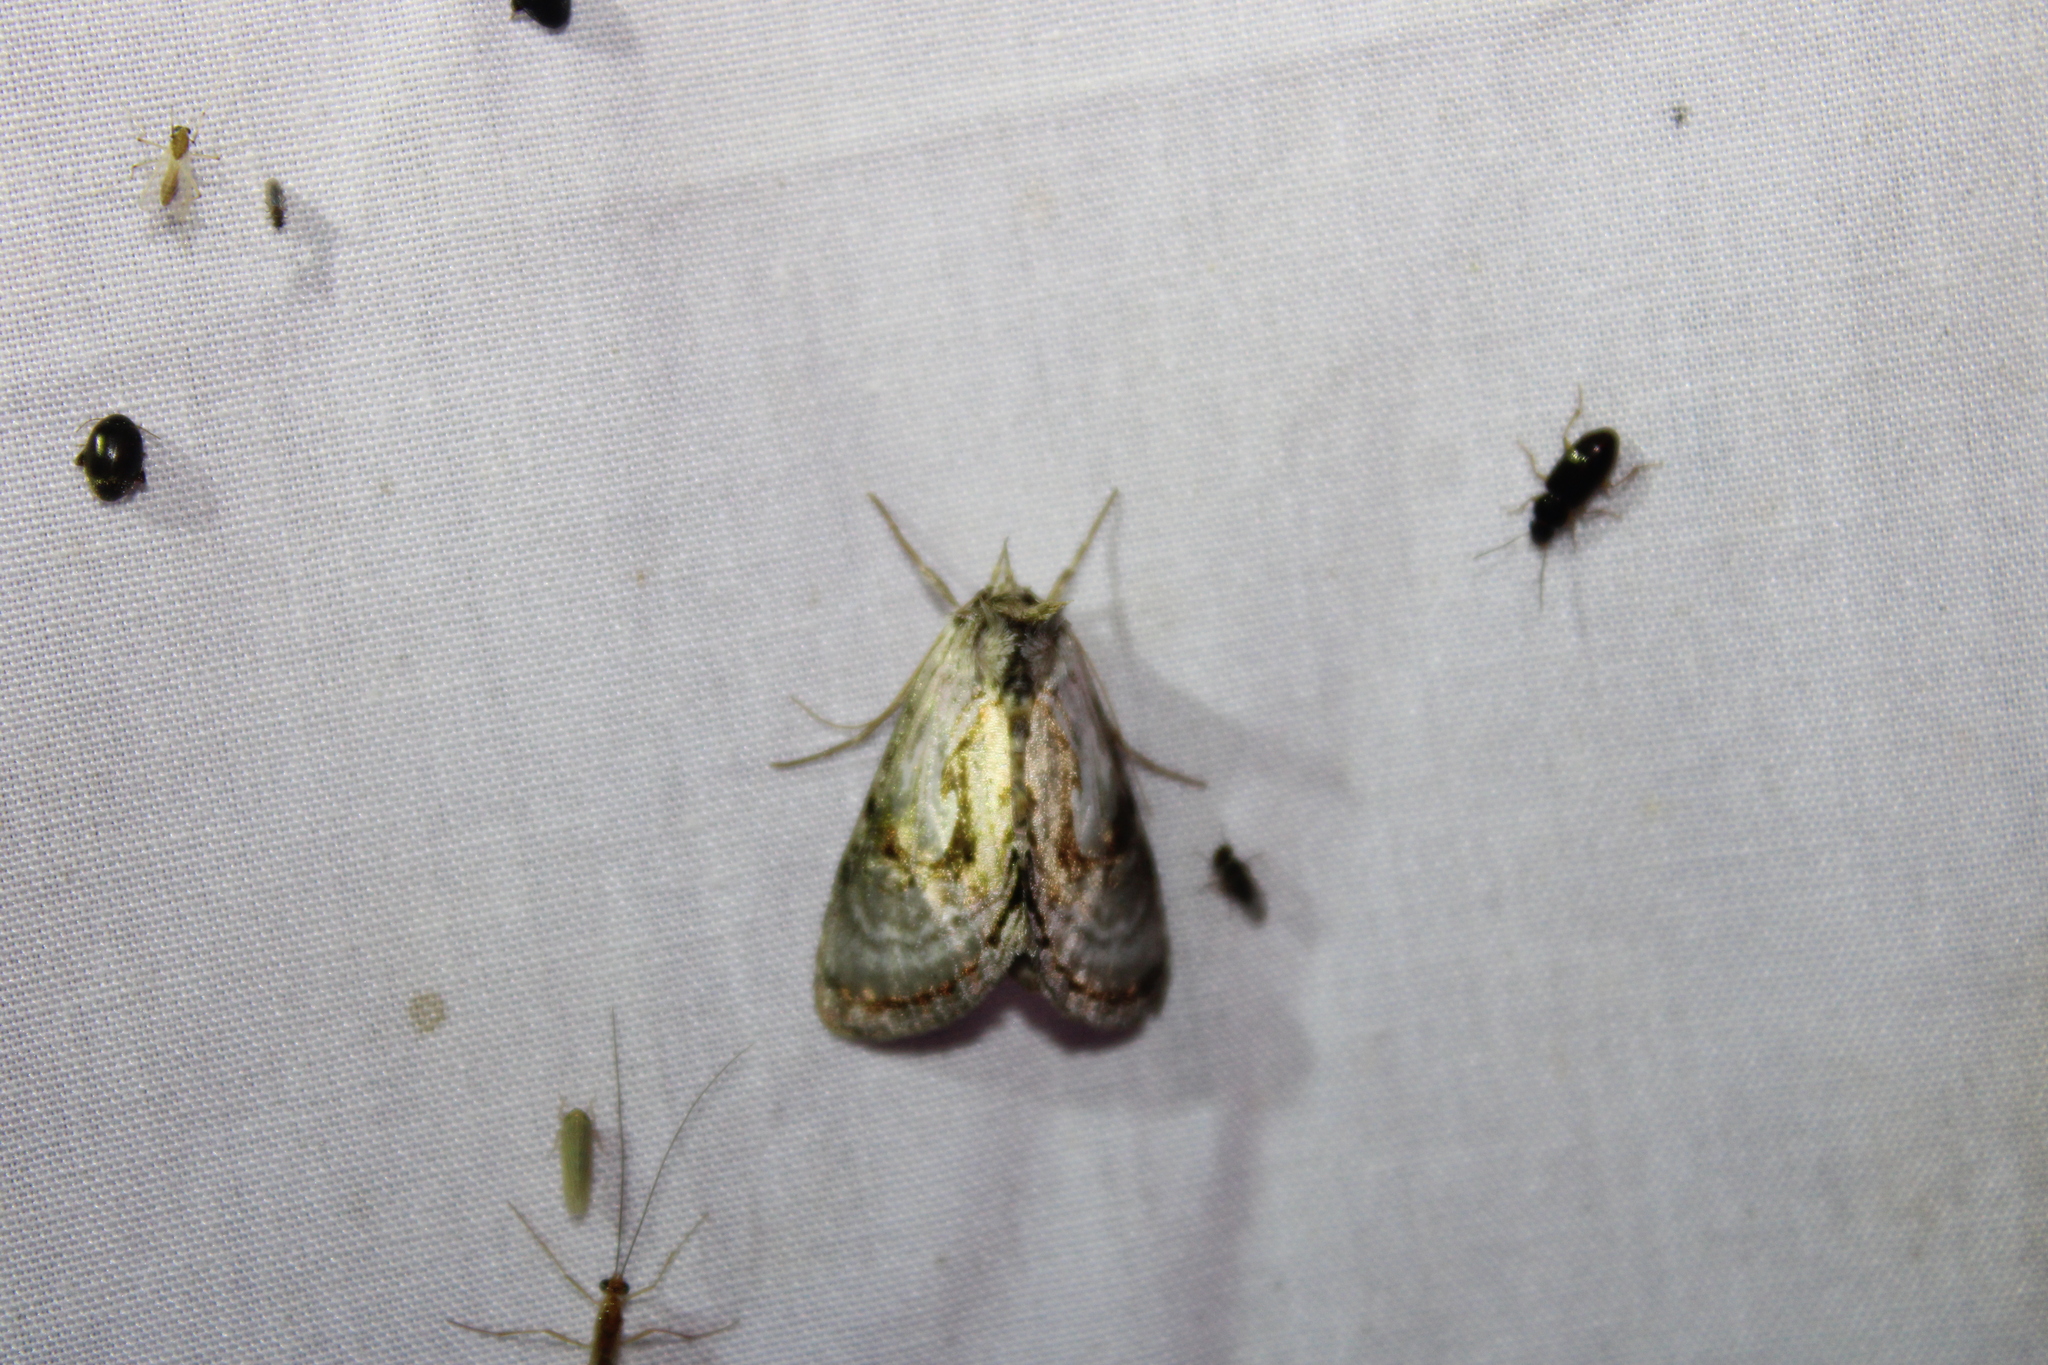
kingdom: Animalia
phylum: Arthropoda
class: Insecta
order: Lepidoptera
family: Noctuidae
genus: Chrysanympha
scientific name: Chrysanympha formosa
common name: Formosa looper moth
